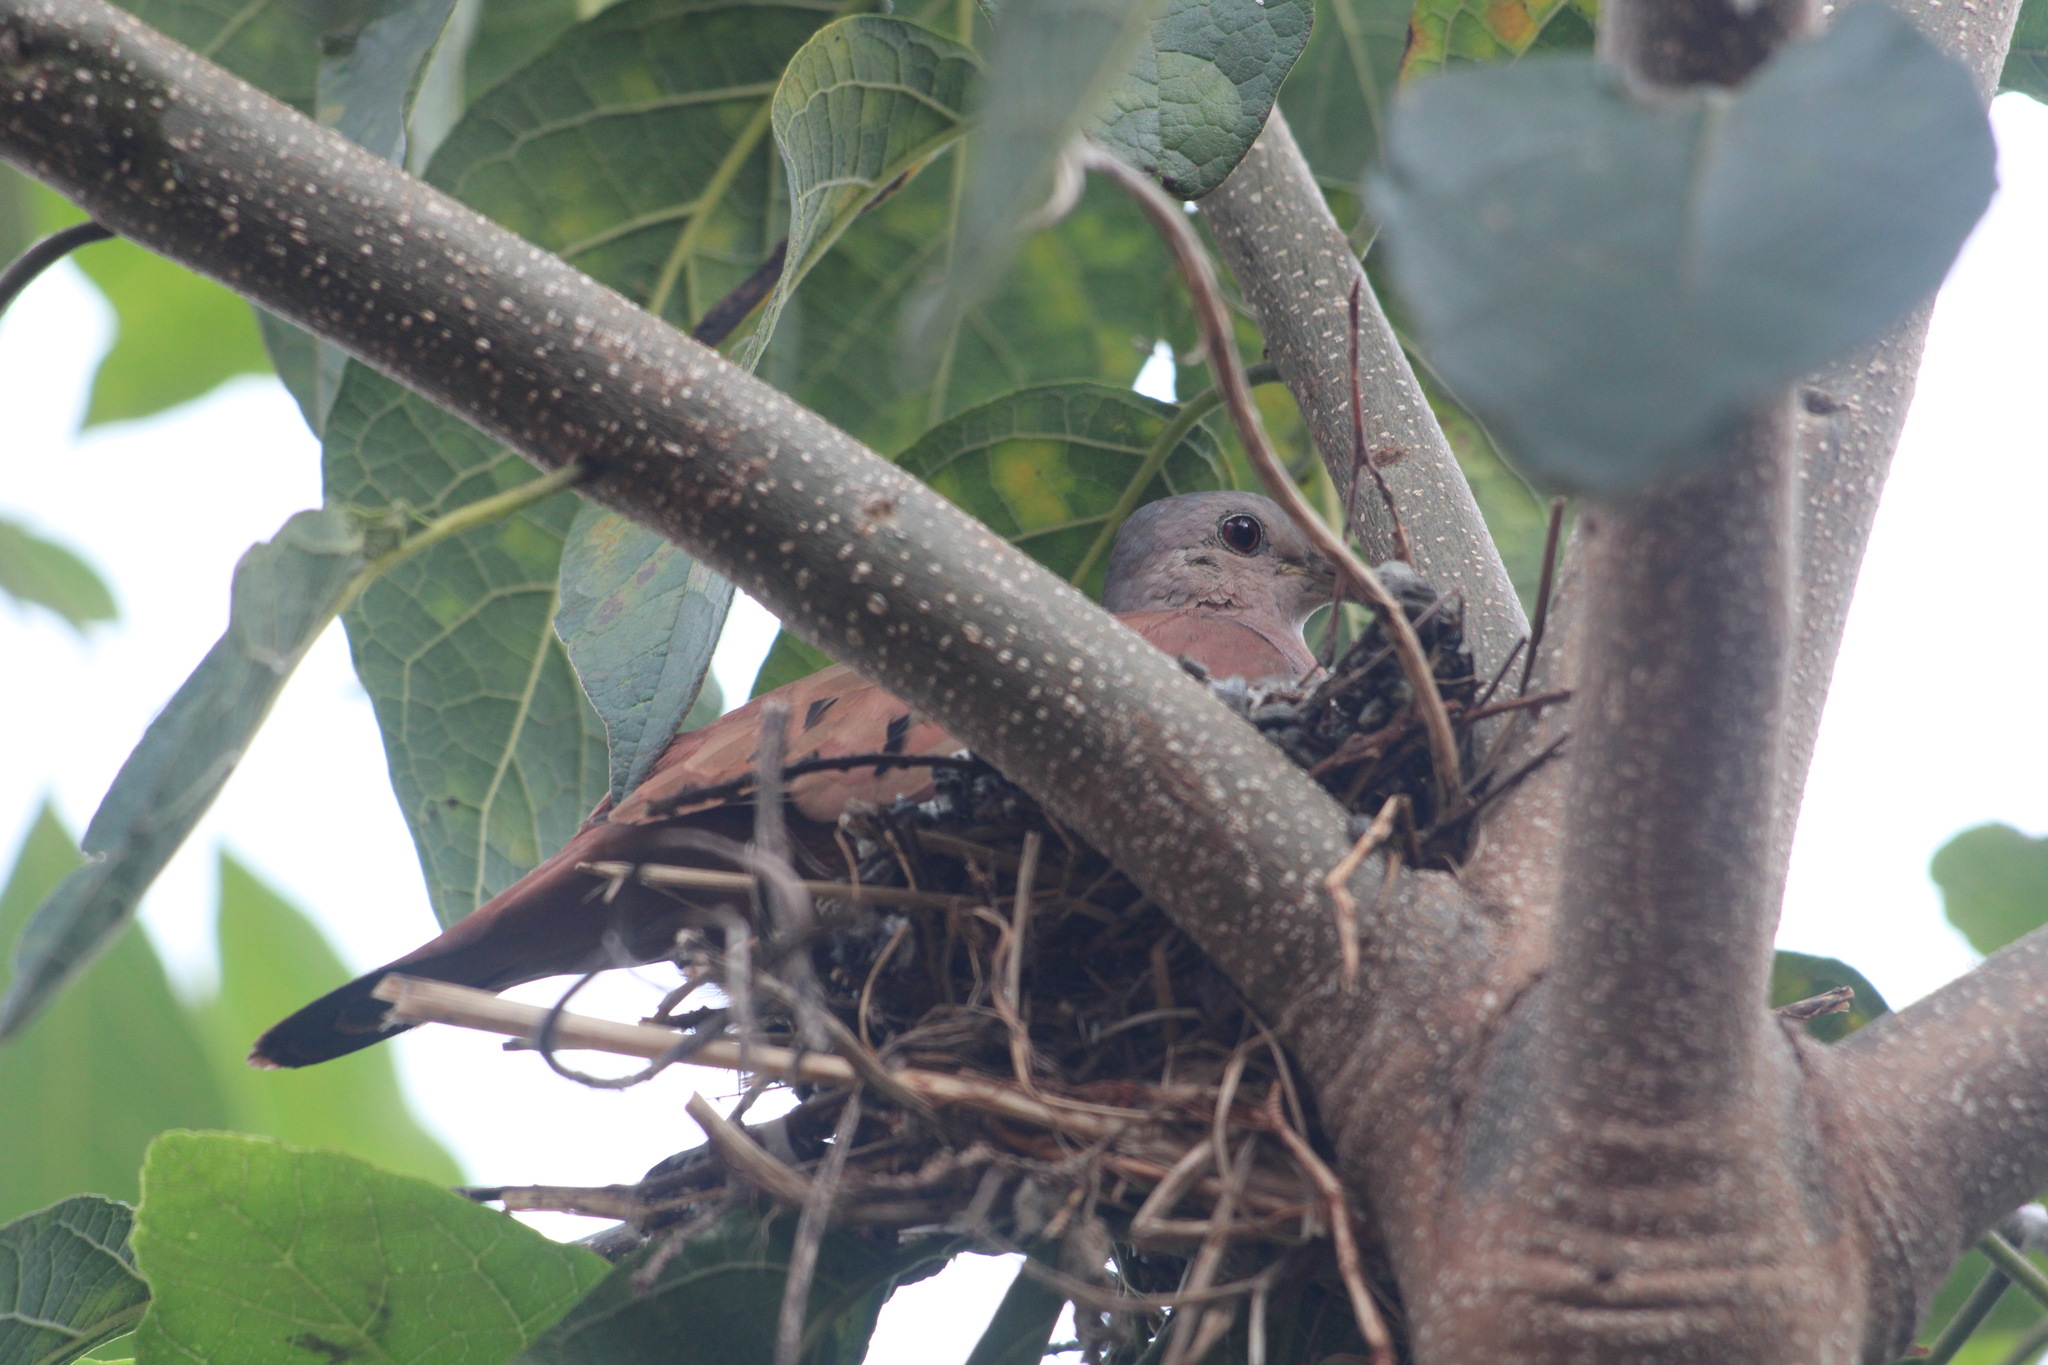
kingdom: Animalia
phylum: Chordata
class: Aves
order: Columbiformes
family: Columbidae
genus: Columbina
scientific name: Columbina talpacoti
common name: Ruddy ground dove
